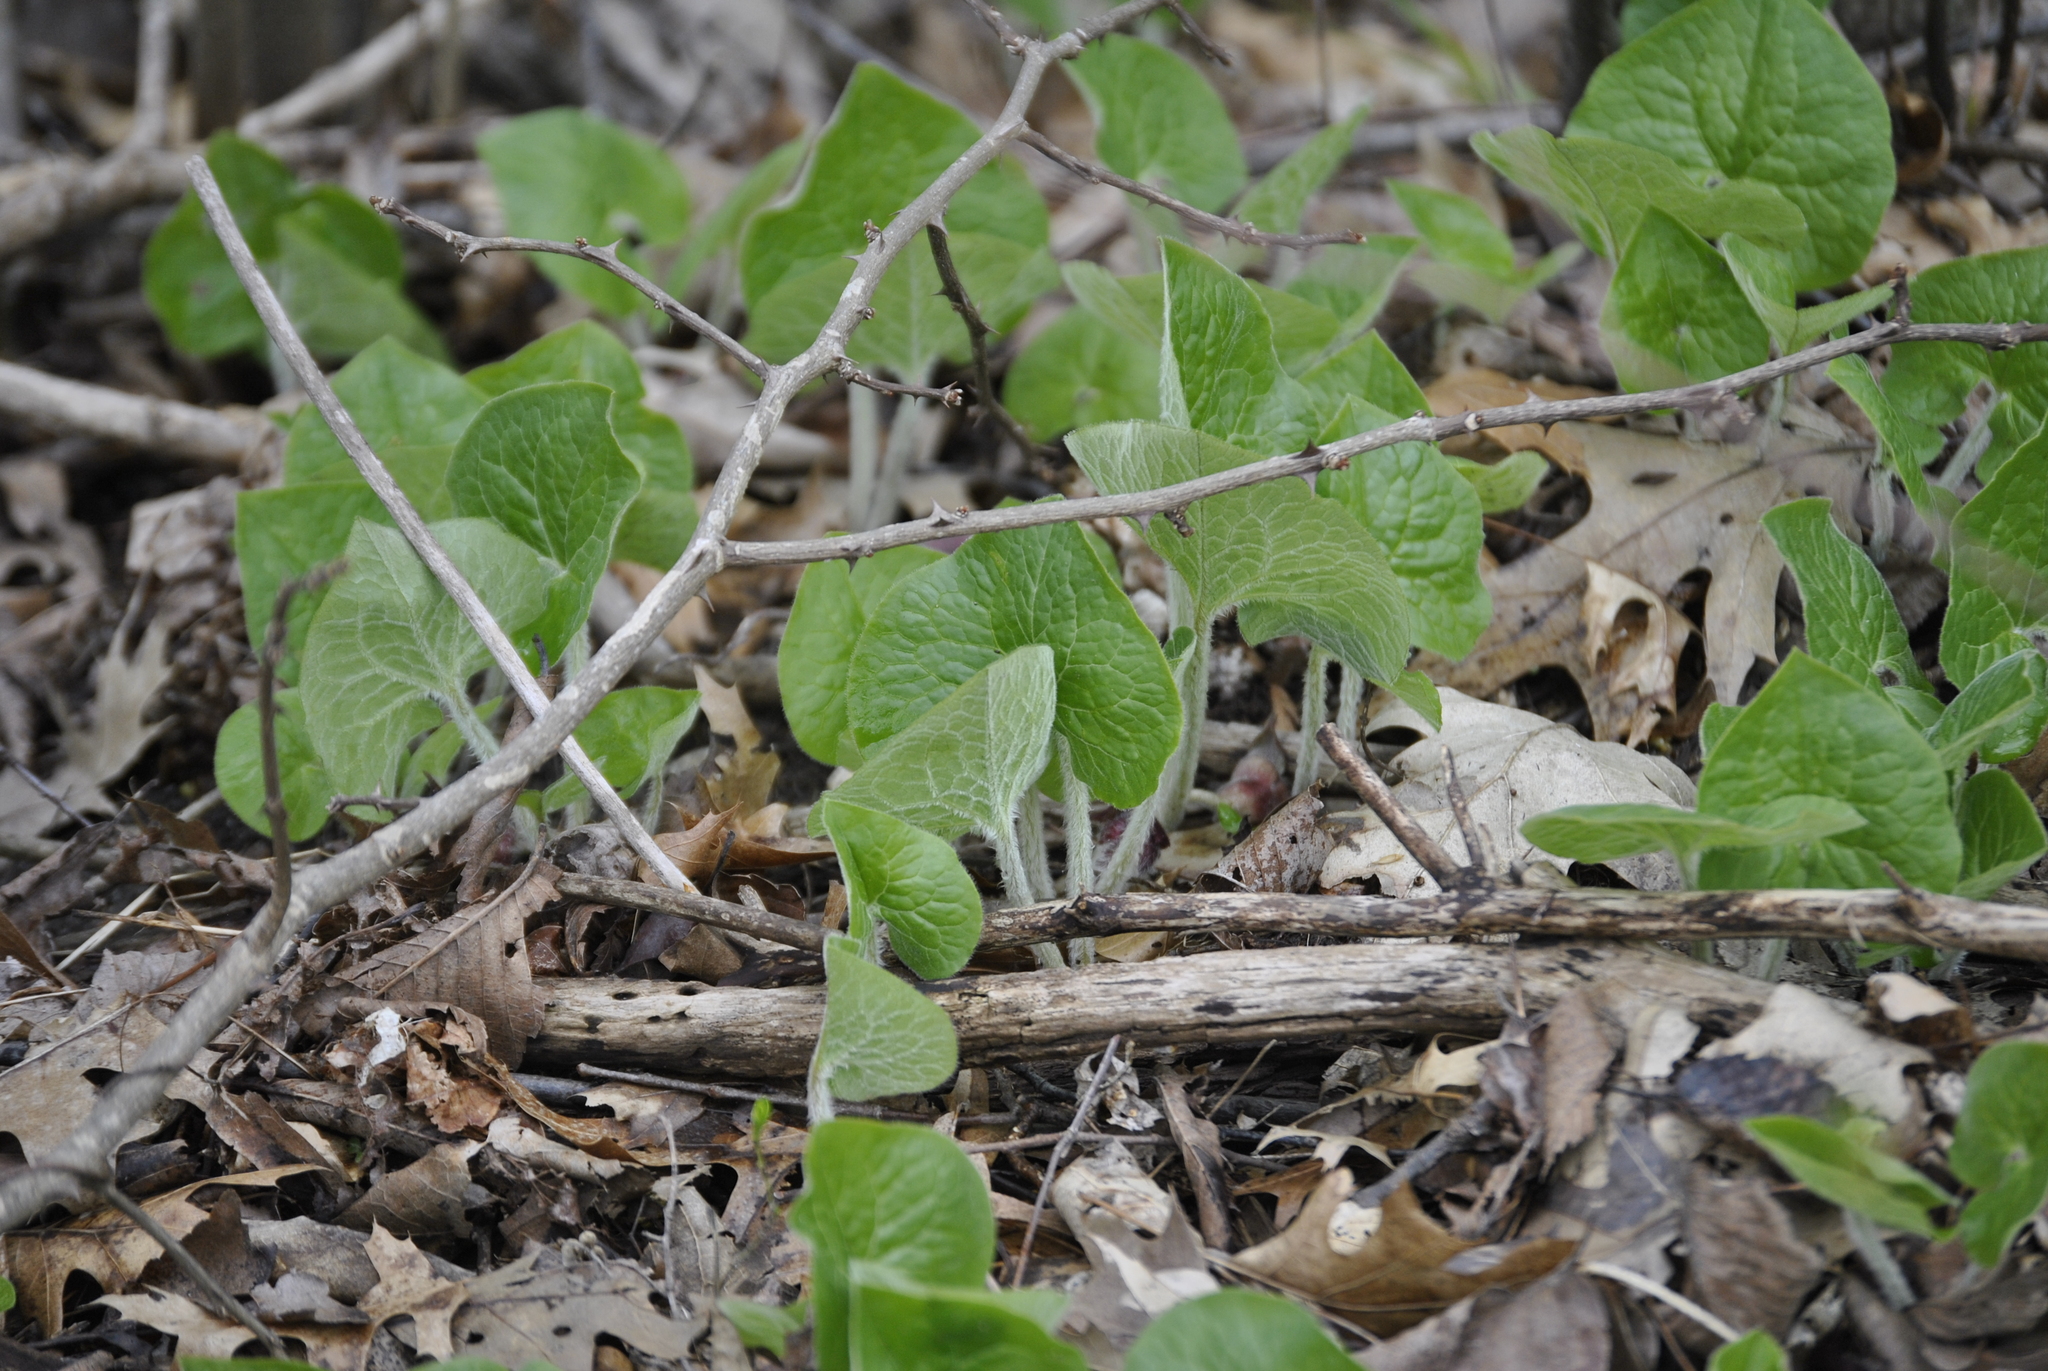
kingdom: Plantae
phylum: Tracheophyta
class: Magnoliopsida
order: Piperales
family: Aristolochiaceae
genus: Asarum
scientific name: Asarum canadense
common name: Wild ginger
